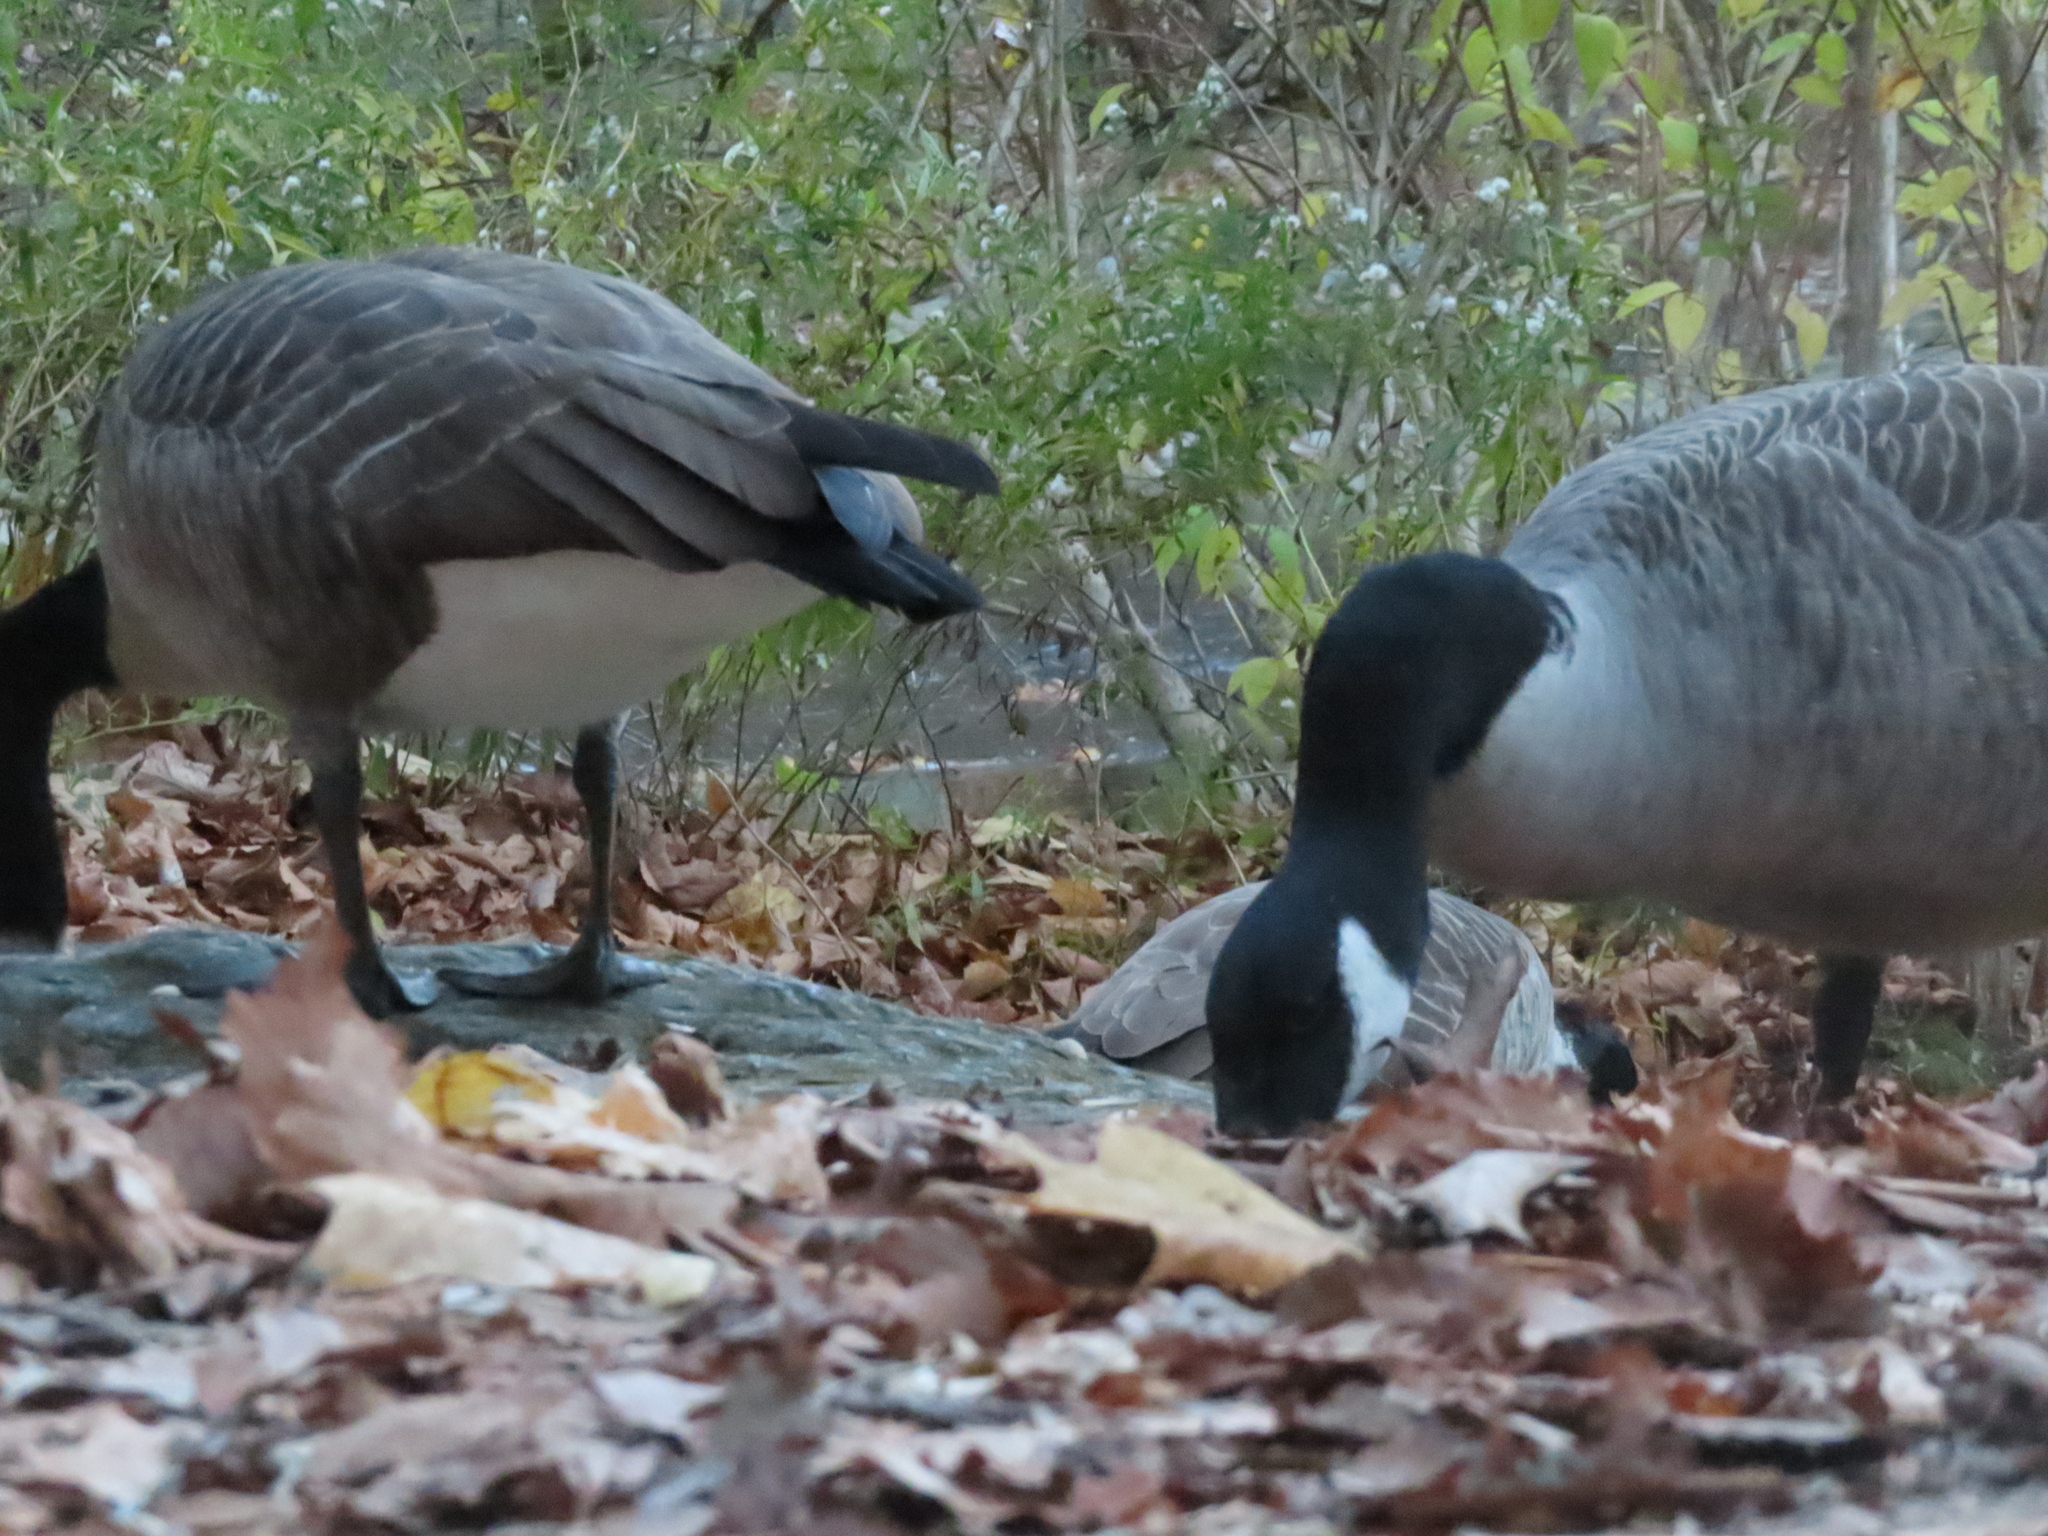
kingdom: Animalia
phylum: Chordata
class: Aves
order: Anseriformes
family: Anatidae
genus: Branta
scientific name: Branta canadensis
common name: Canada goose
